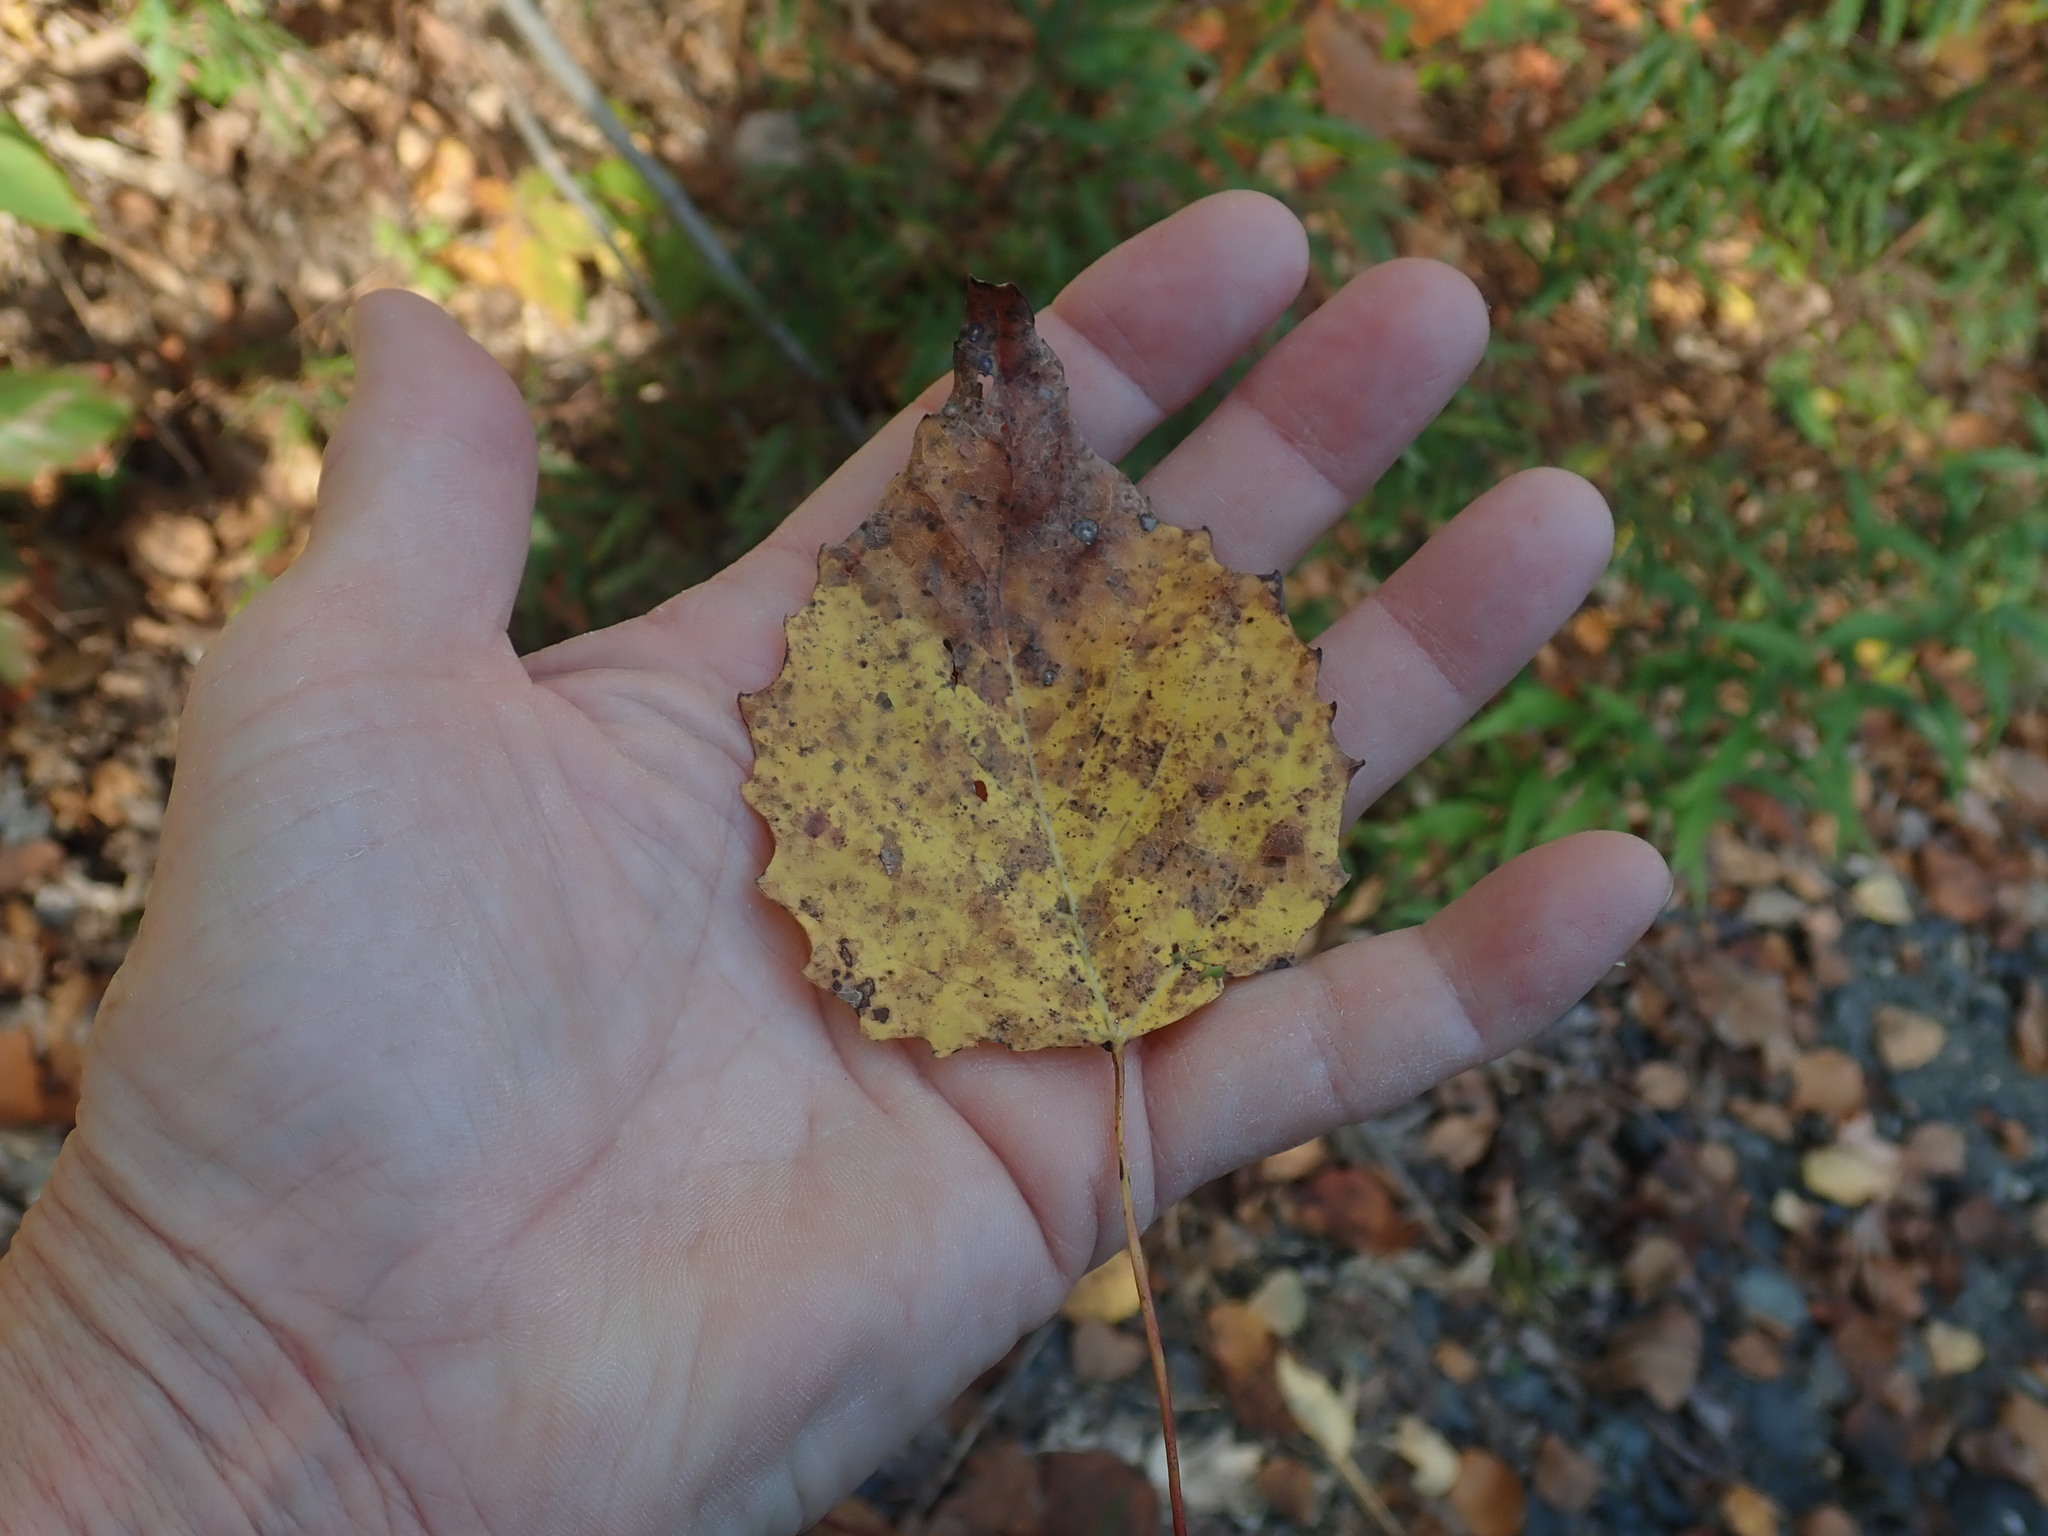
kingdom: Plantae
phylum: Tracheophyta
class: Magnoliopsida
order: Malpighiales
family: Salicaceae
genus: Populus
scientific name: Populus grandidentata
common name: Bigtooth aspen
